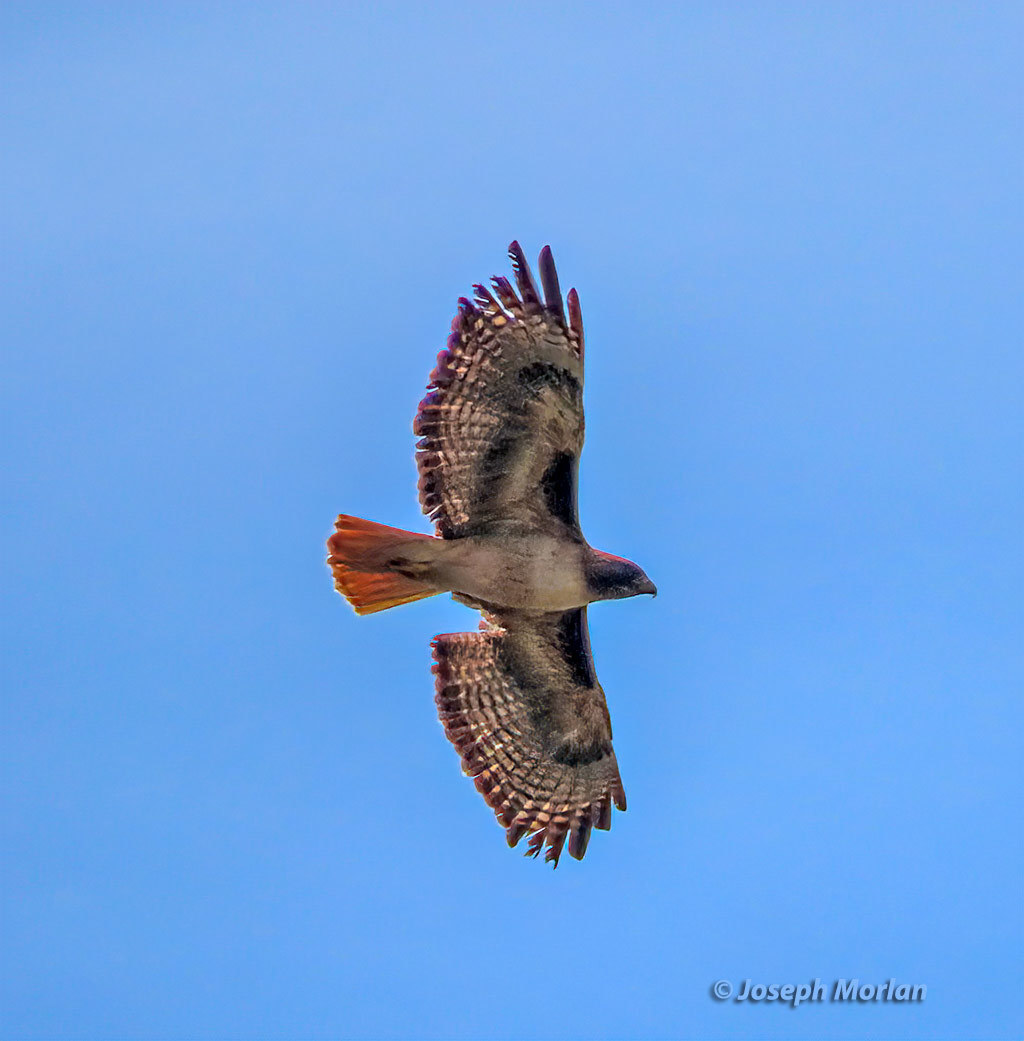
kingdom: Animalia
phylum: Chordata
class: Aves
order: Accipitriformes
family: Accipitridae
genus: Buteo
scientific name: Buteo jamaicensis
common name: Red-tailed hawk
